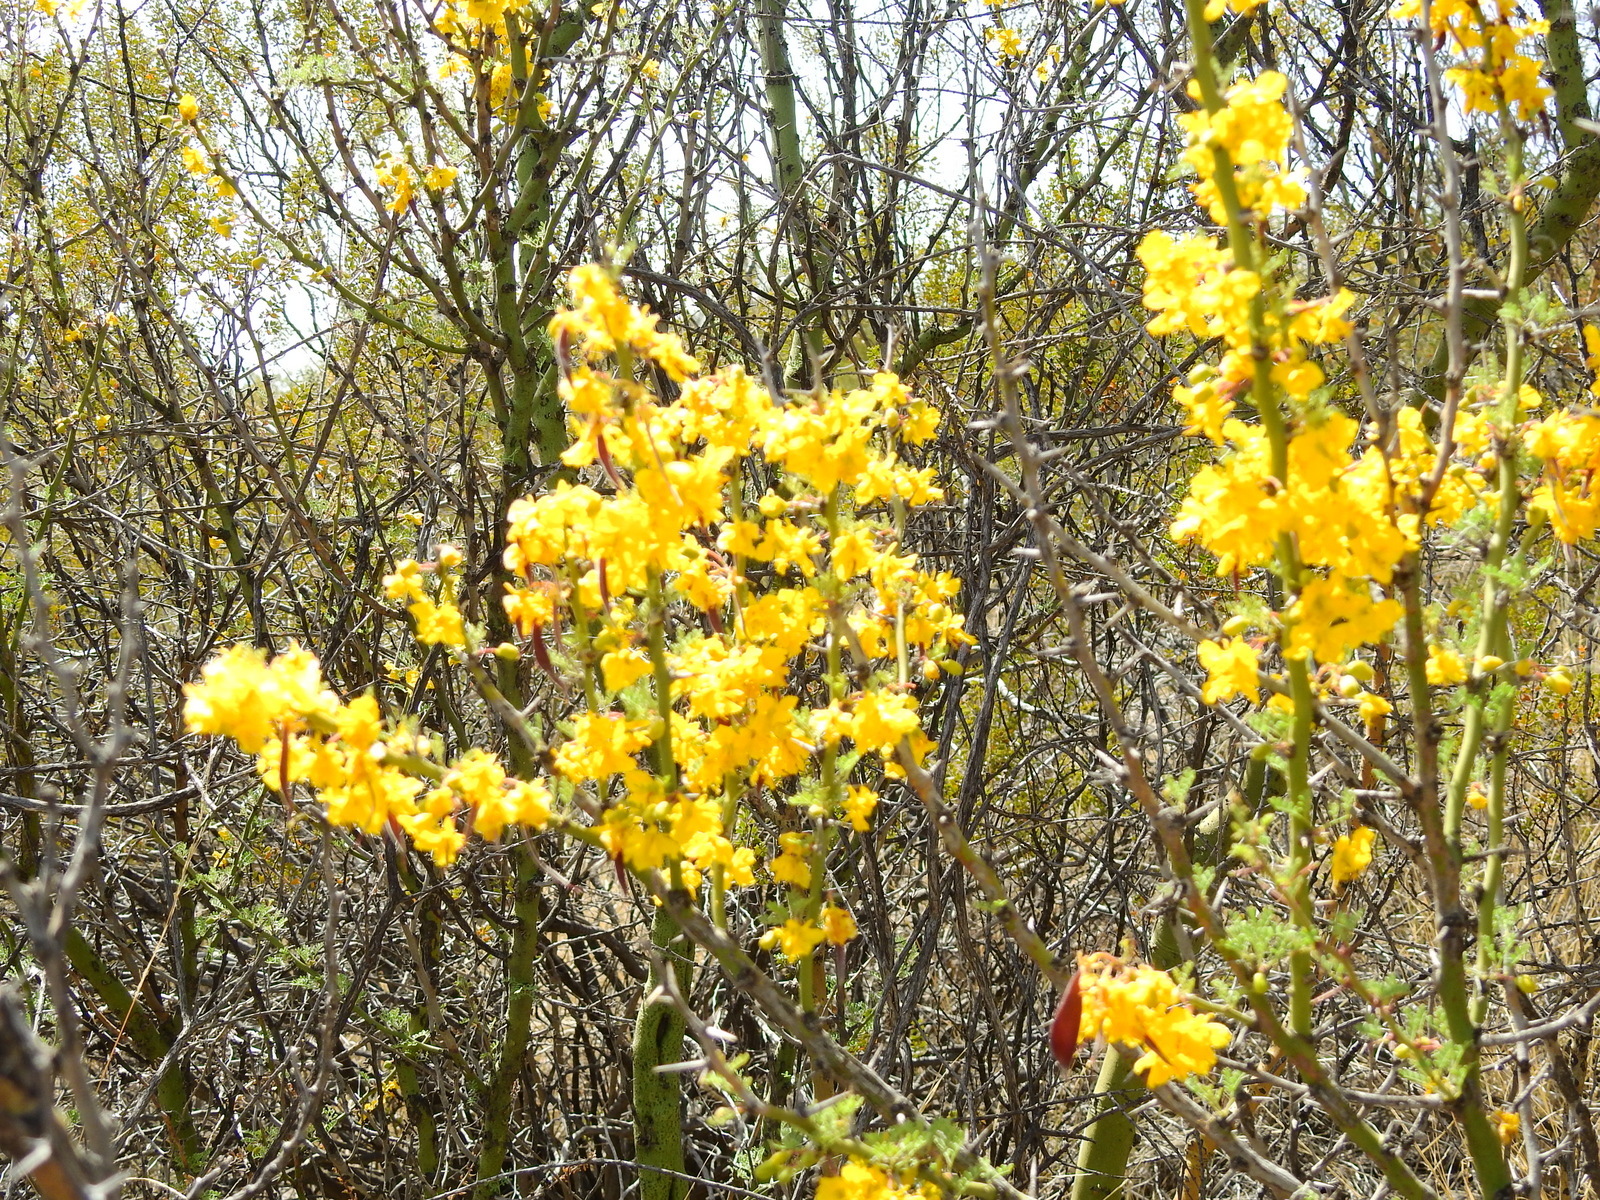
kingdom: Plantae
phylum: Tracheophyta
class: Magnoliopsida
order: Fabales
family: Fabaceae
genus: Parkinsonia
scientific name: Parkinsonia praecox
